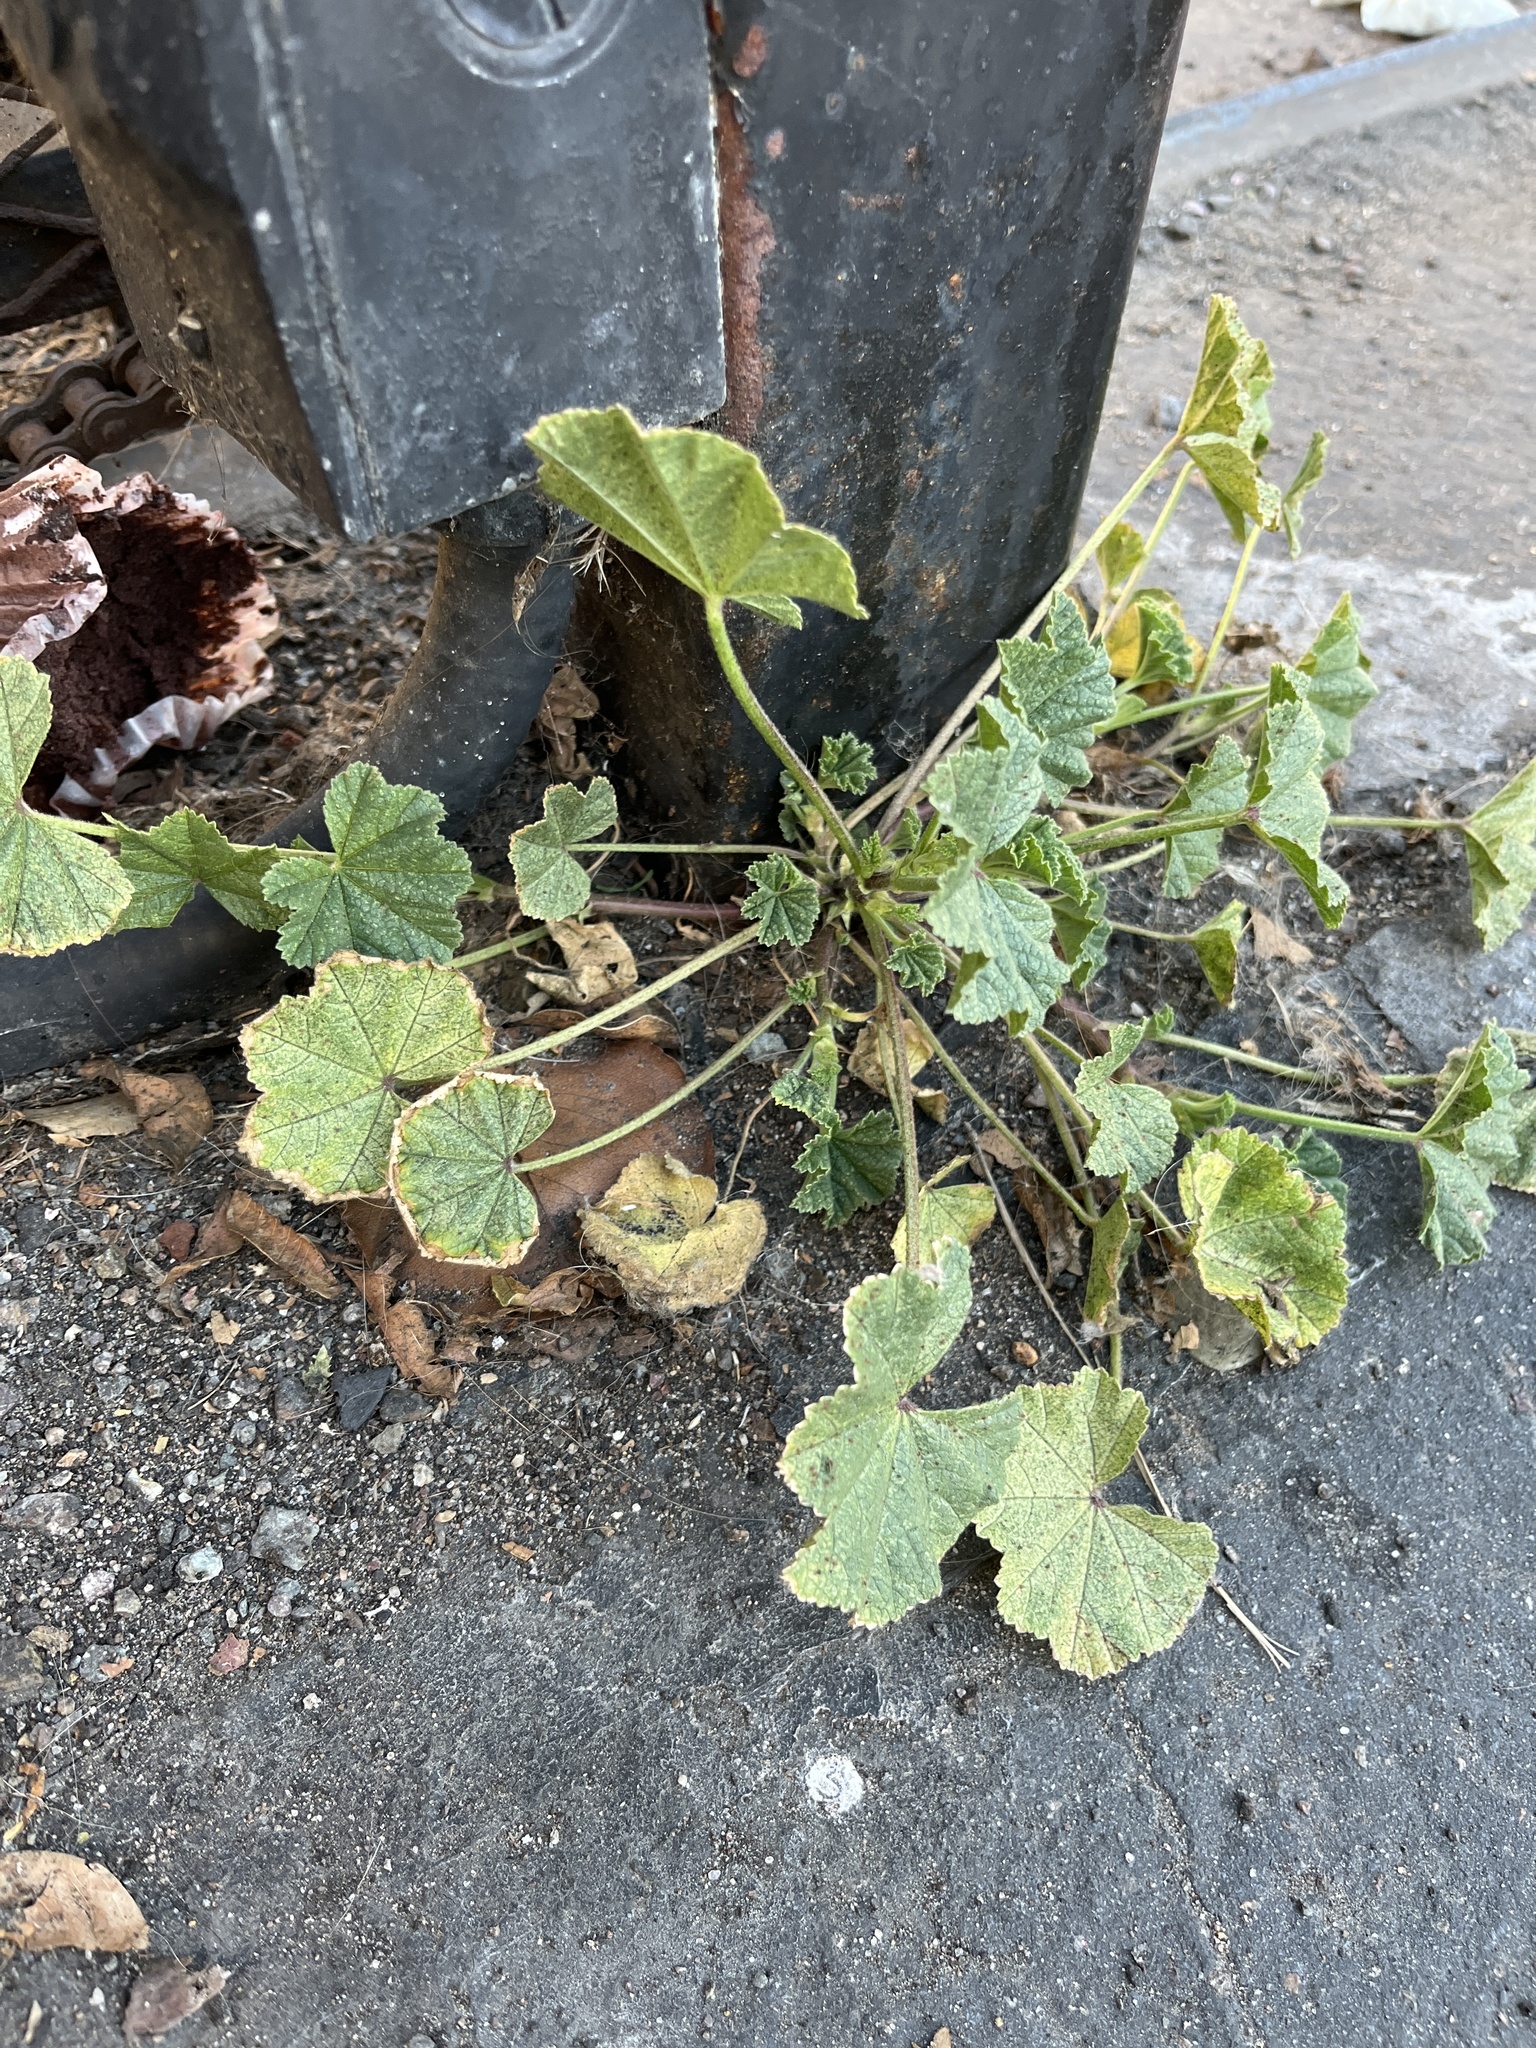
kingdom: Plantae
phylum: Tracheophyta
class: Magnoliopsida
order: Malvales
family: Malvaceae
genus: Malva
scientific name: Malva parviflora
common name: Least mallow
